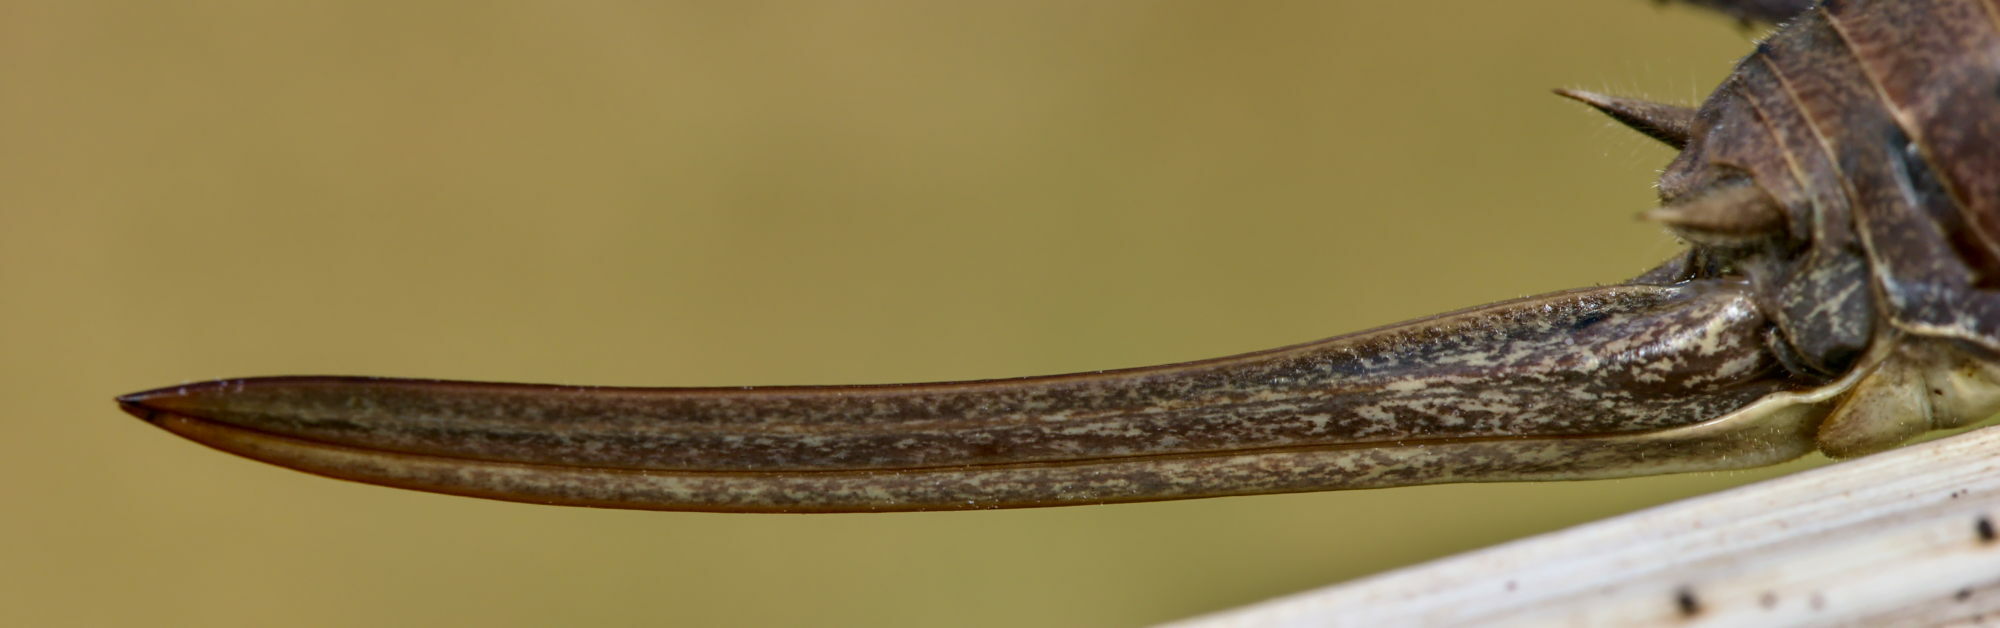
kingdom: Animalia
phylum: Arthropoda
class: Insecta
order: Orthoptera
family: Tettigoniidae
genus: Pholidoptera
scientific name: Pholidoptera aptera
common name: Alpine dark bush-cricket
